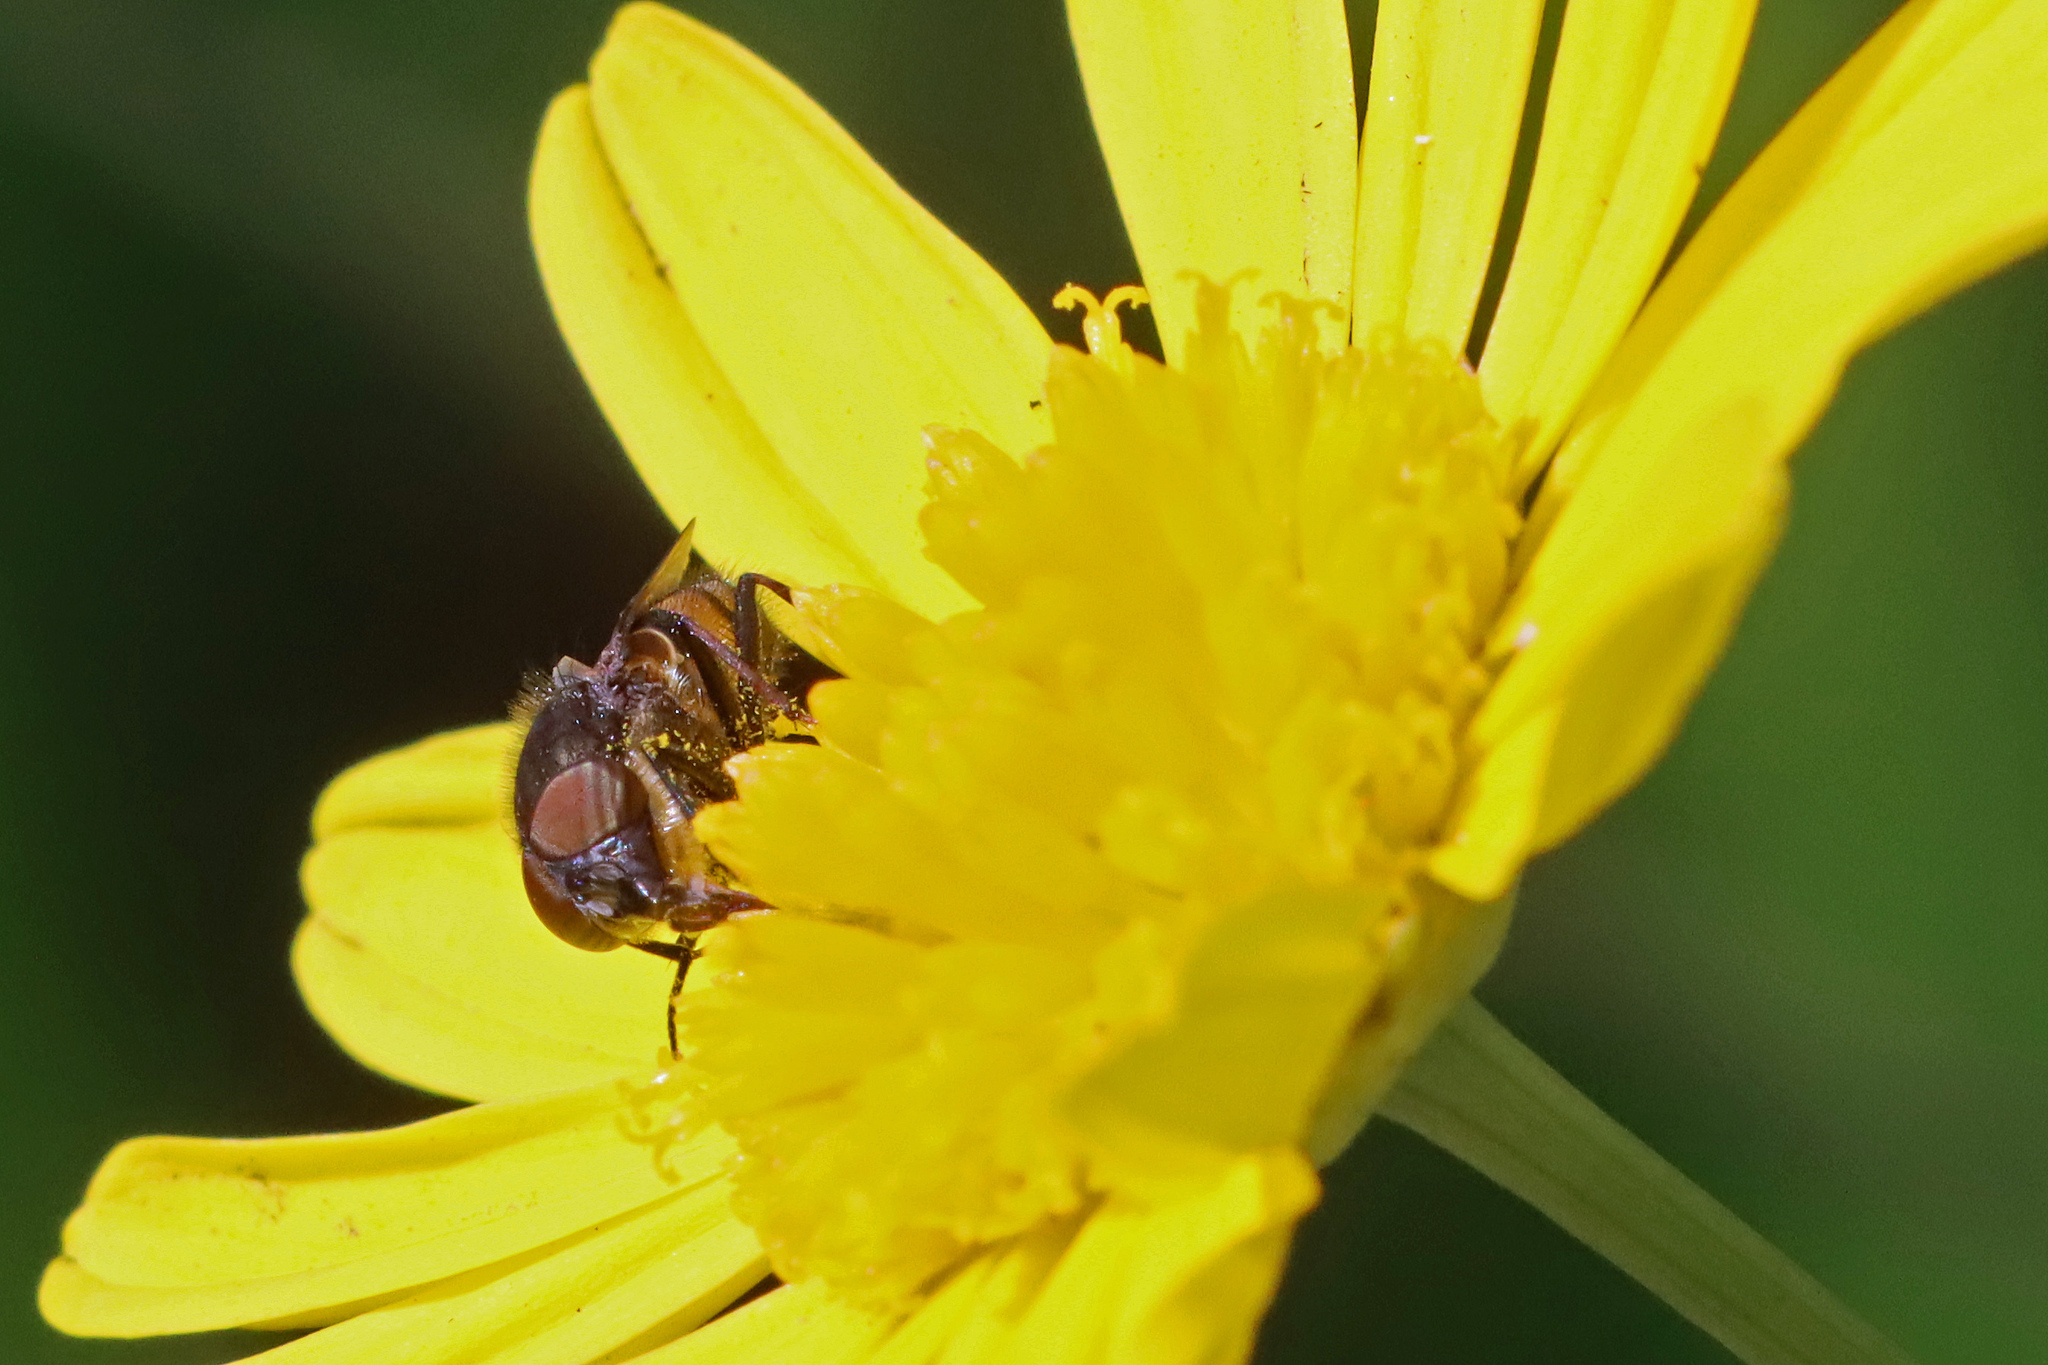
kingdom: Animalia
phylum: Arthropoda
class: Insecta
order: Diptera
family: Calliphoridae
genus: Stomorhina
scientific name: Stomorhina lunata
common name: Locust blowfly
